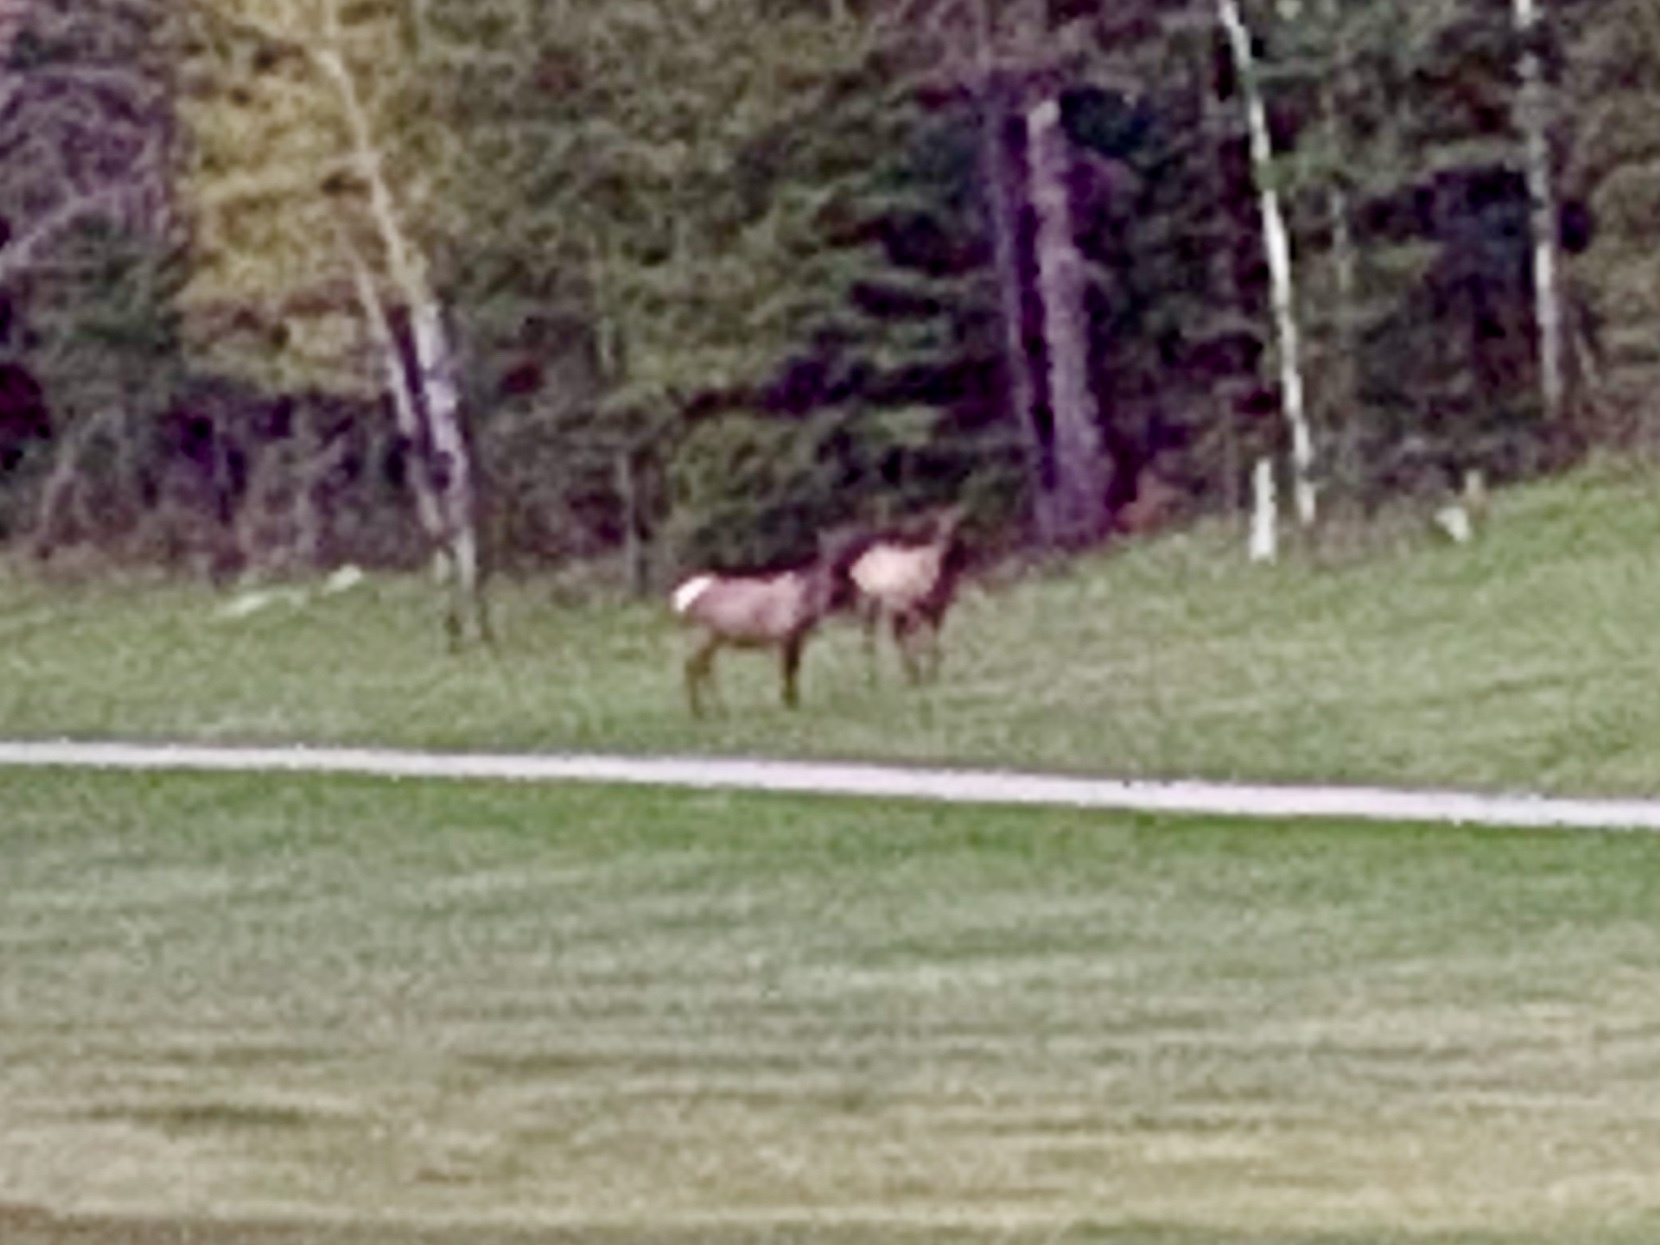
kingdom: Animalia
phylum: Chordata
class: Mammalia
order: Artiodactyla
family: Cervidae
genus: Cervus
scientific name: Cervus elaphus
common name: Red deer
